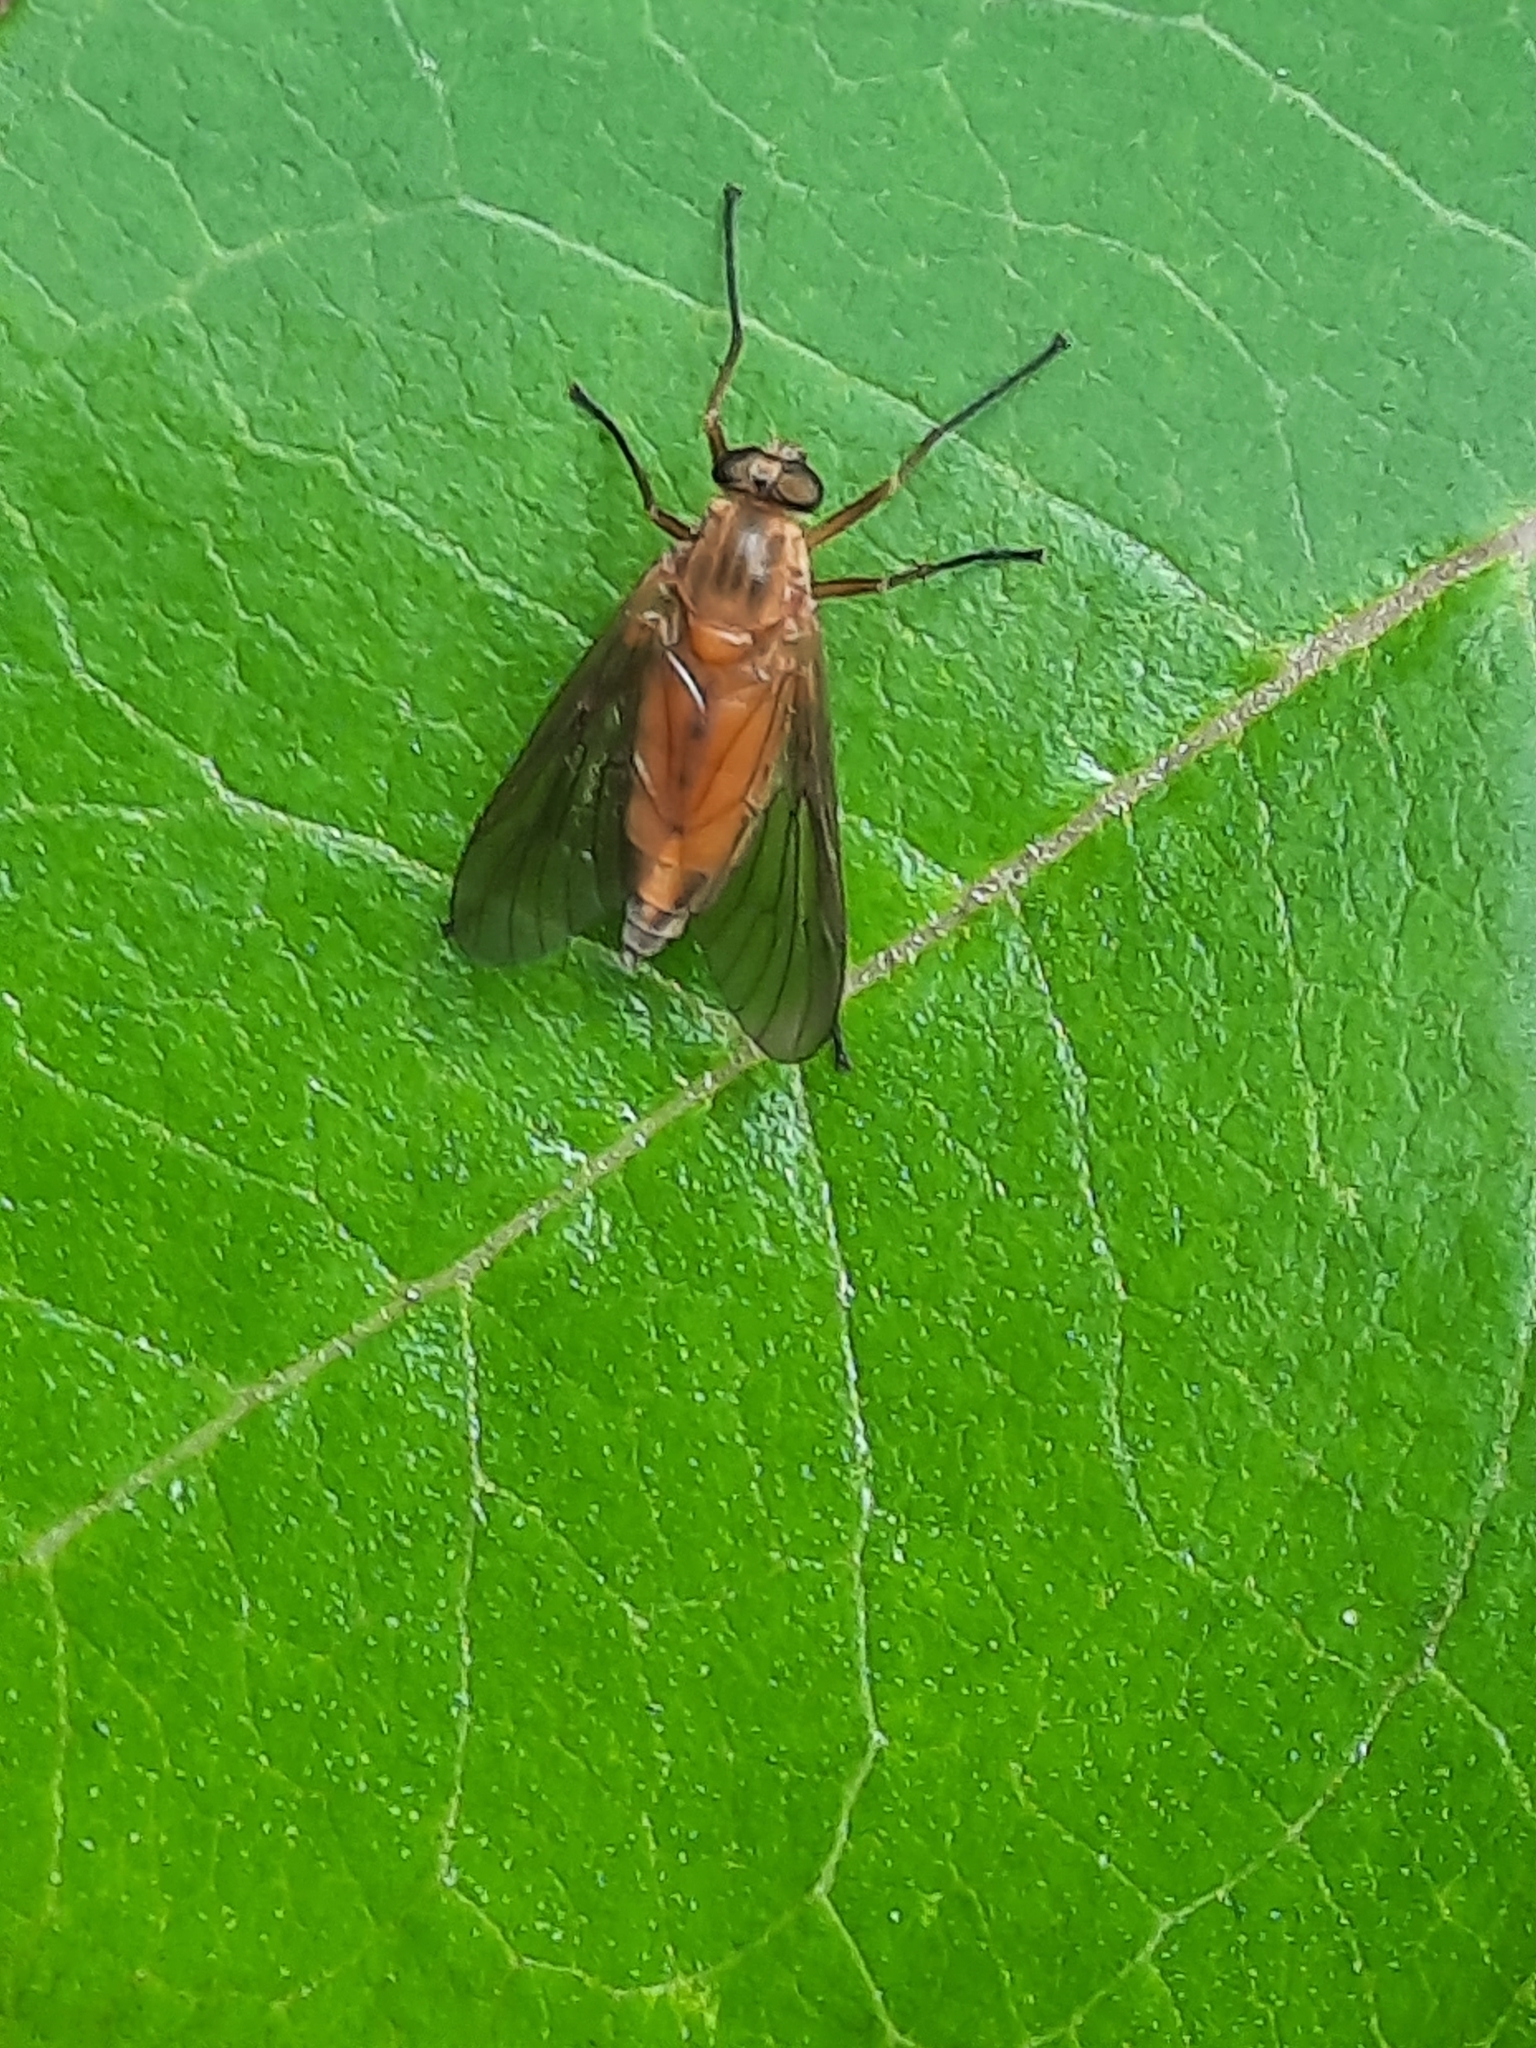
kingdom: Animalia
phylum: Arthropoda
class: Insecta
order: Diptera
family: Rhagionidae
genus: Rhagio
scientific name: Rhagio tringaria
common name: Marsh snipefly
